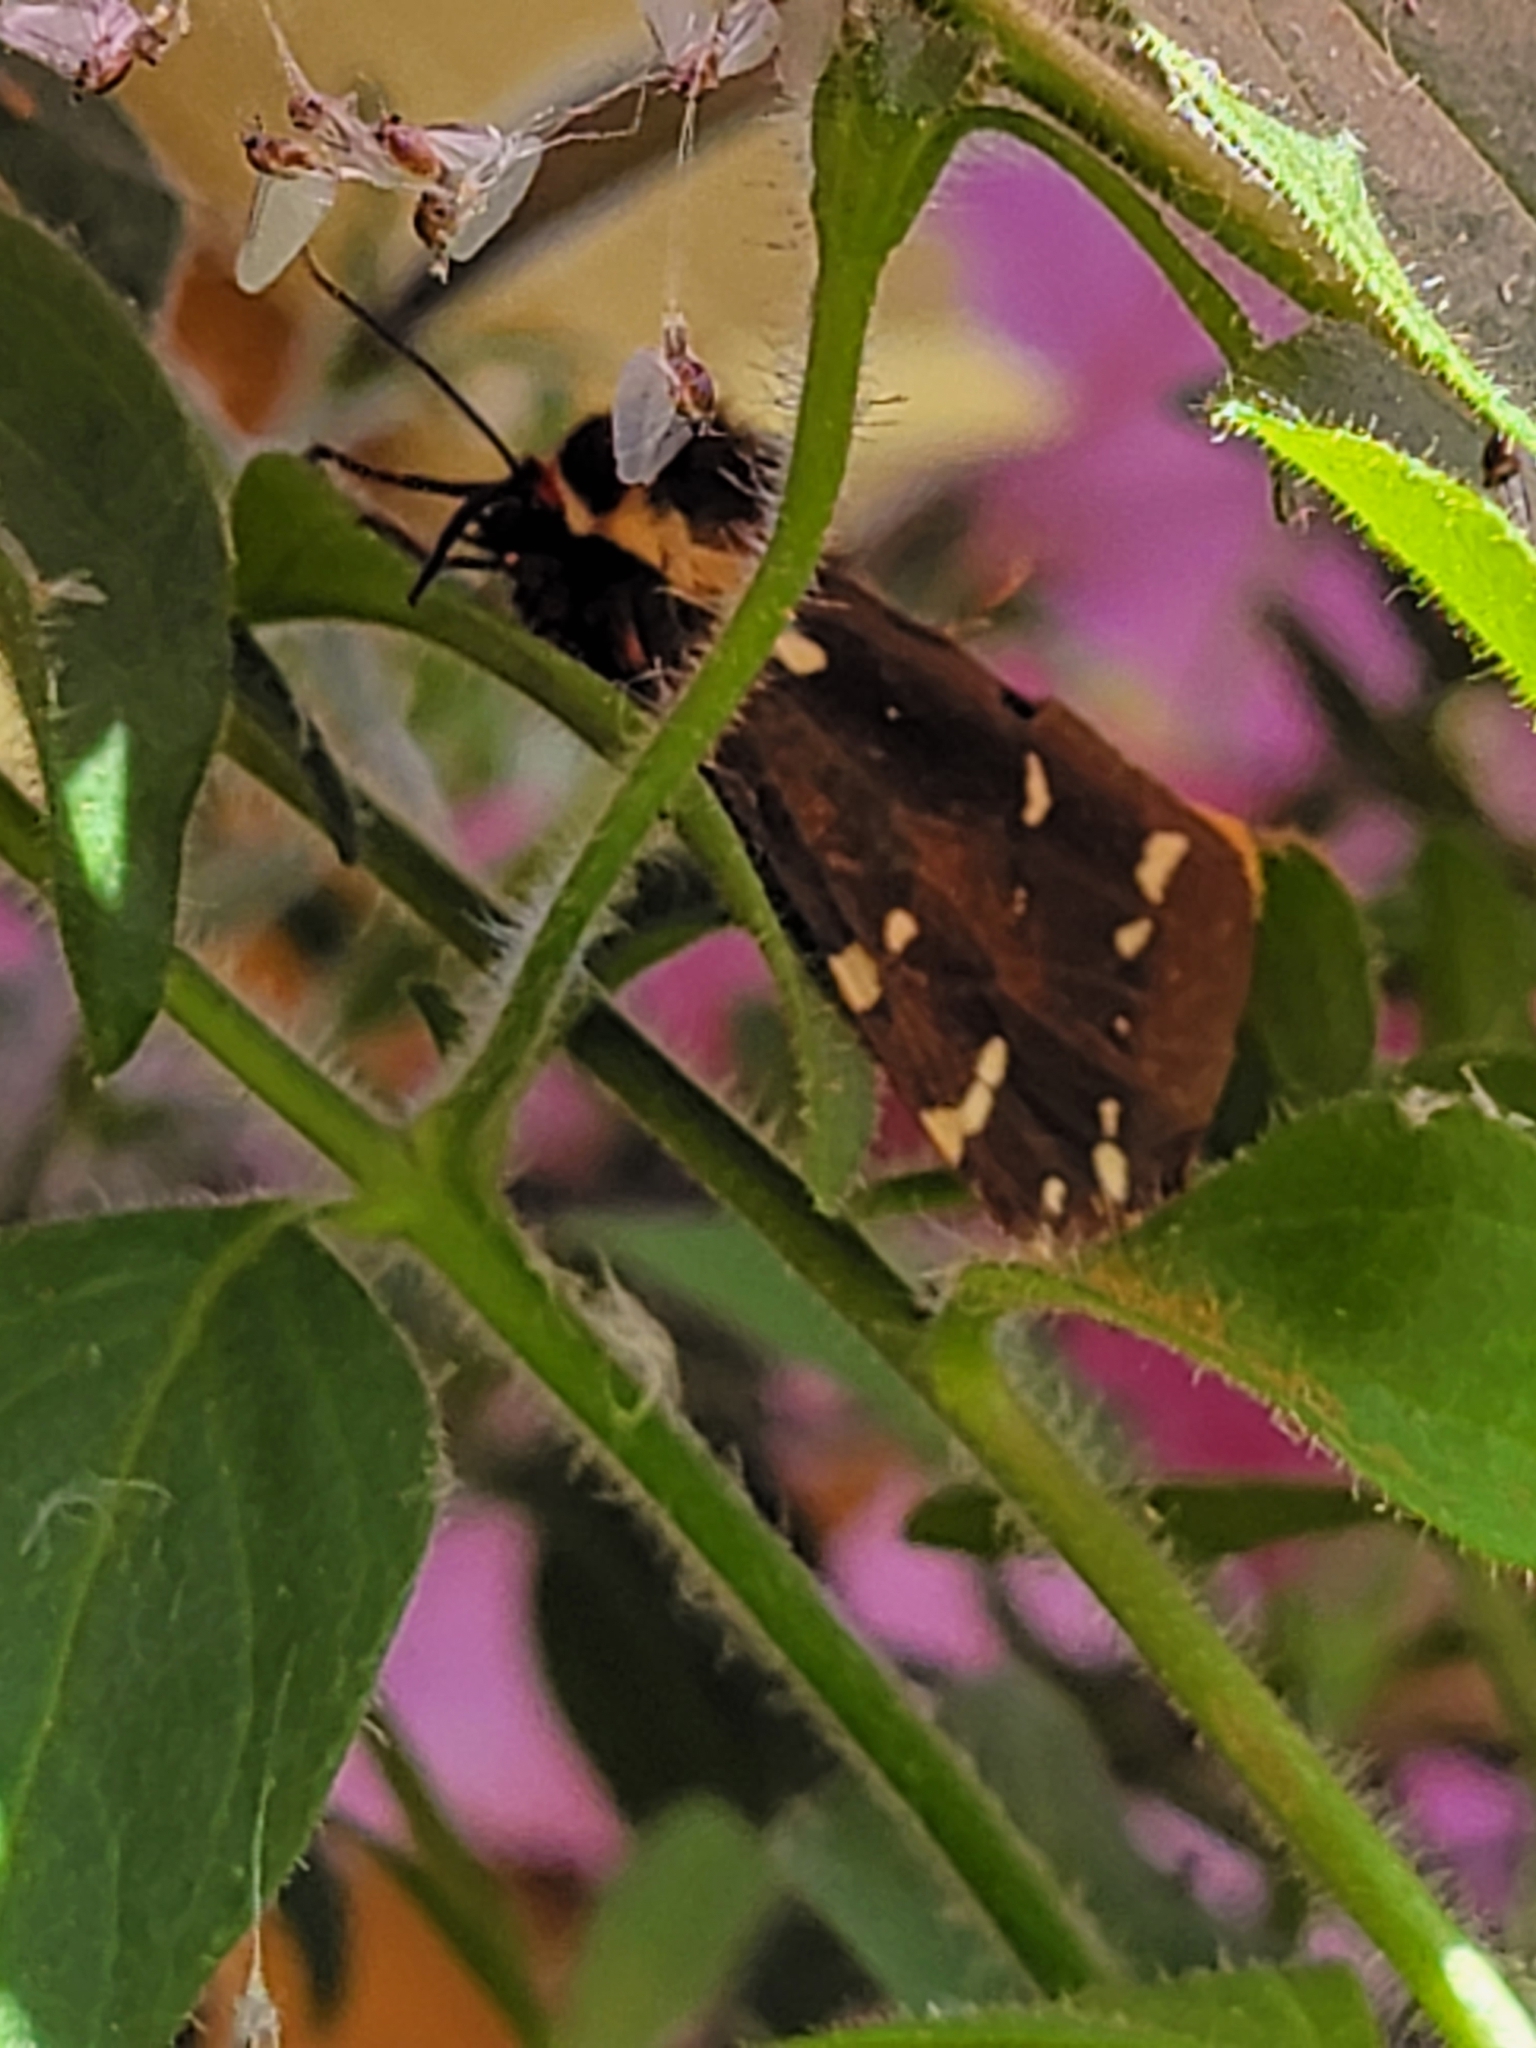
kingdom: Animalia
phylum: Arthropoda
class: Insecta
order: Lepidoptera
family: Erebidae
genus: Arctia
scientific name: Arctia parthenos
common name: St. lawrence tiger moth
